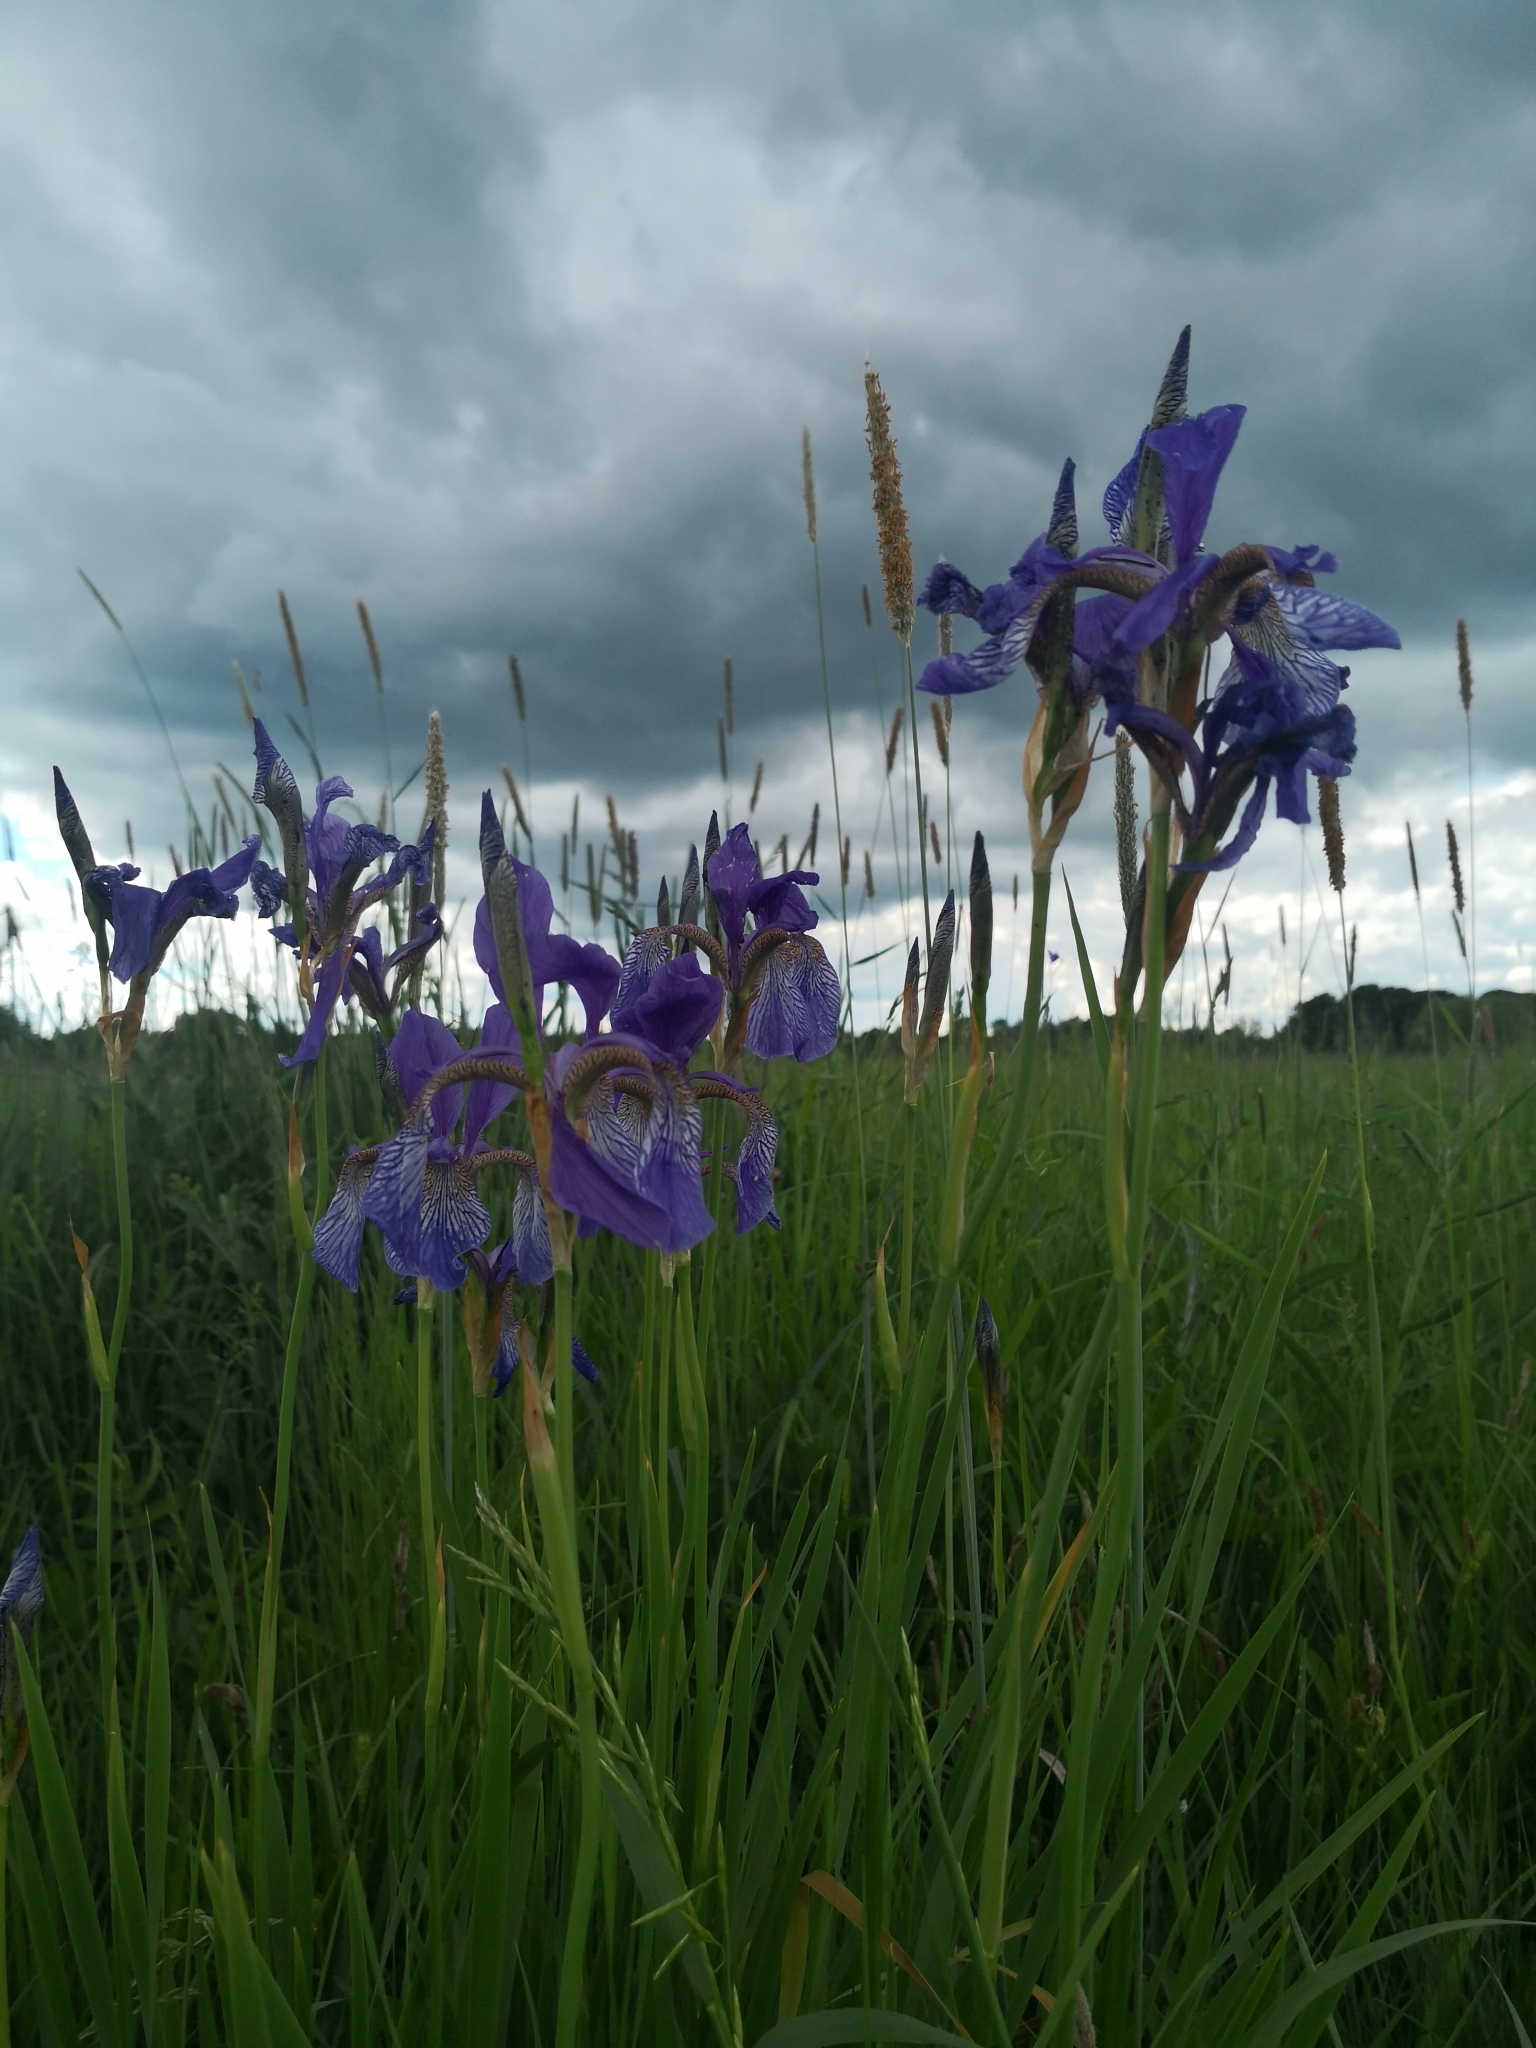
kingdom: Plantae
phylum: Tracheophyta
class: Liliopsida
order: Asparagales
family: Iridaceae
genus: Iris
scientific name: Iris sibirica
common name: Siberian iris
